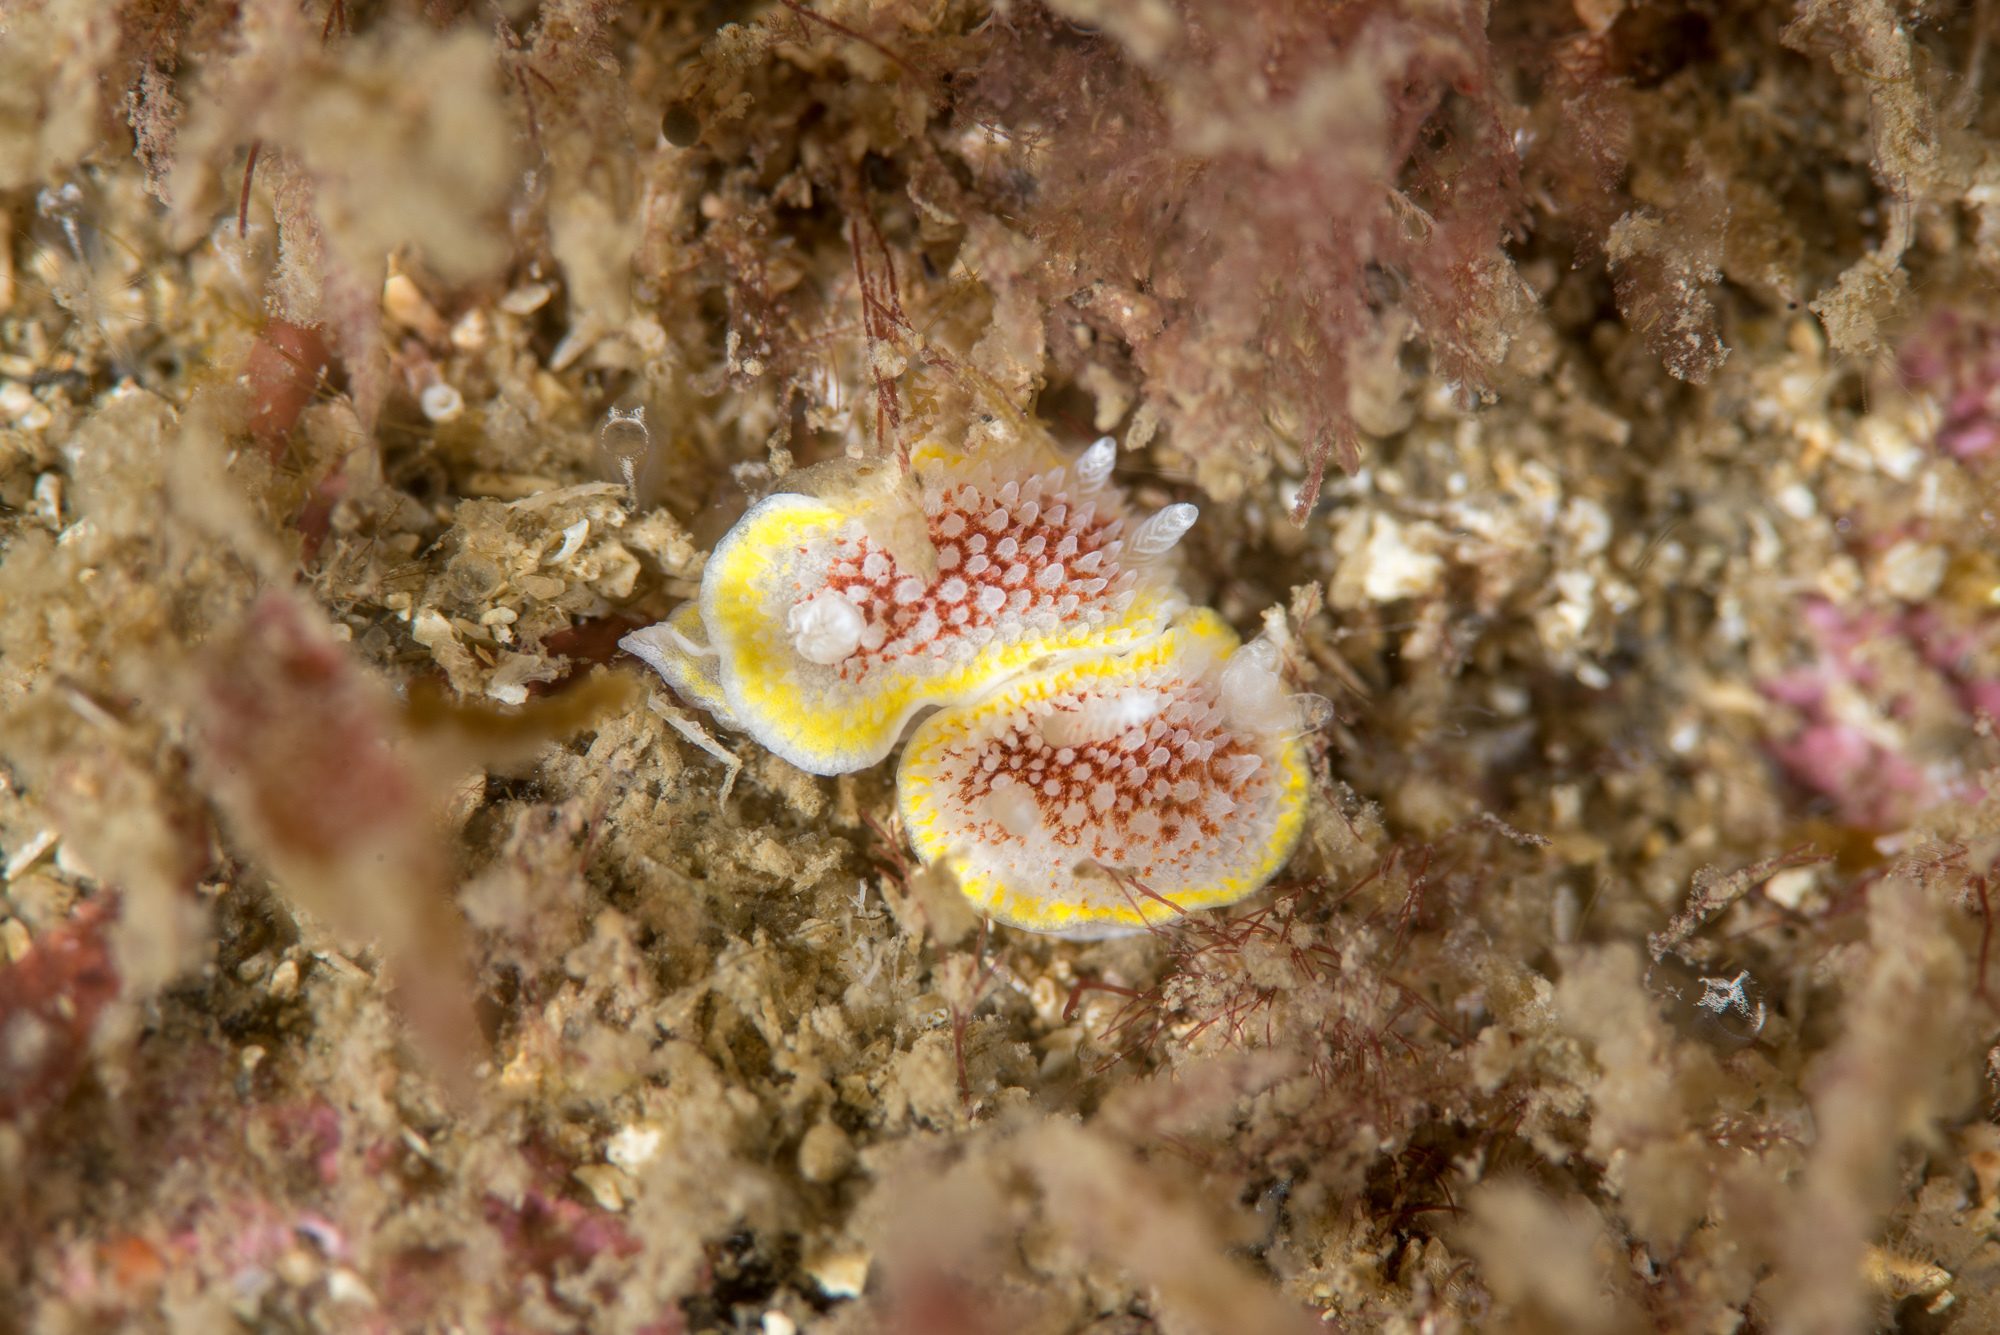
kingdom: Animalia
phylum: Mollusca
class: Gastropoda
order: Nudibranchia
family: Calycidorididae
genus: Diaphorodoris
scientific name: Diaphorodoris luteocincta
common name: Fried egg nudibranch
